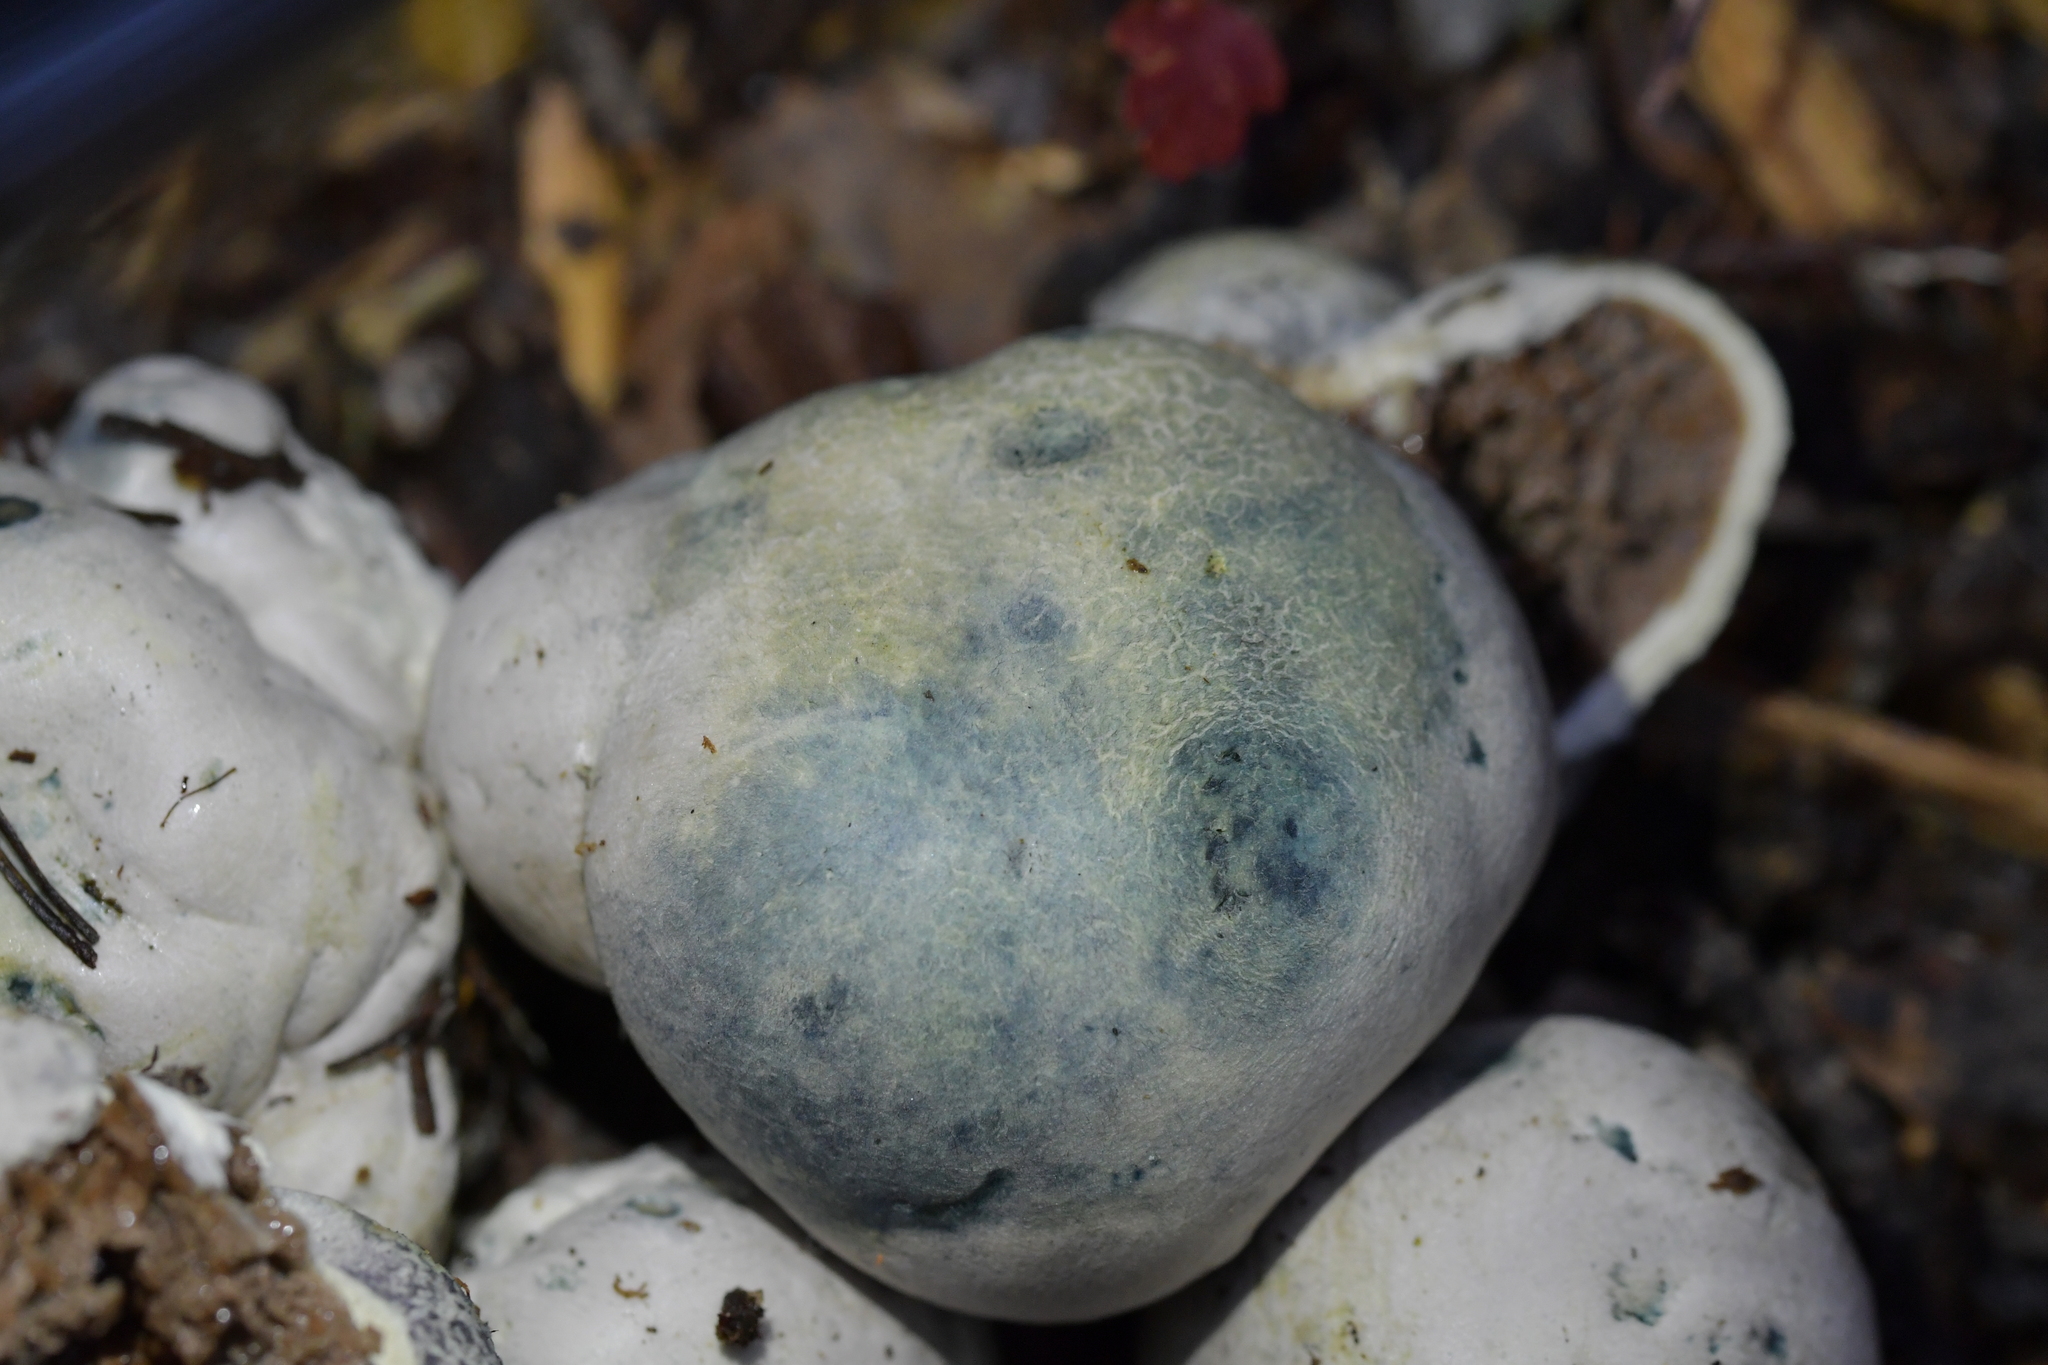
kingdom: Fungi
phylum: Basidiomycota
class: Agaricomycetes
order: Boletales
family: Boletaceae
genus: Leccinum
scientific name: Leccinum pachyderme
